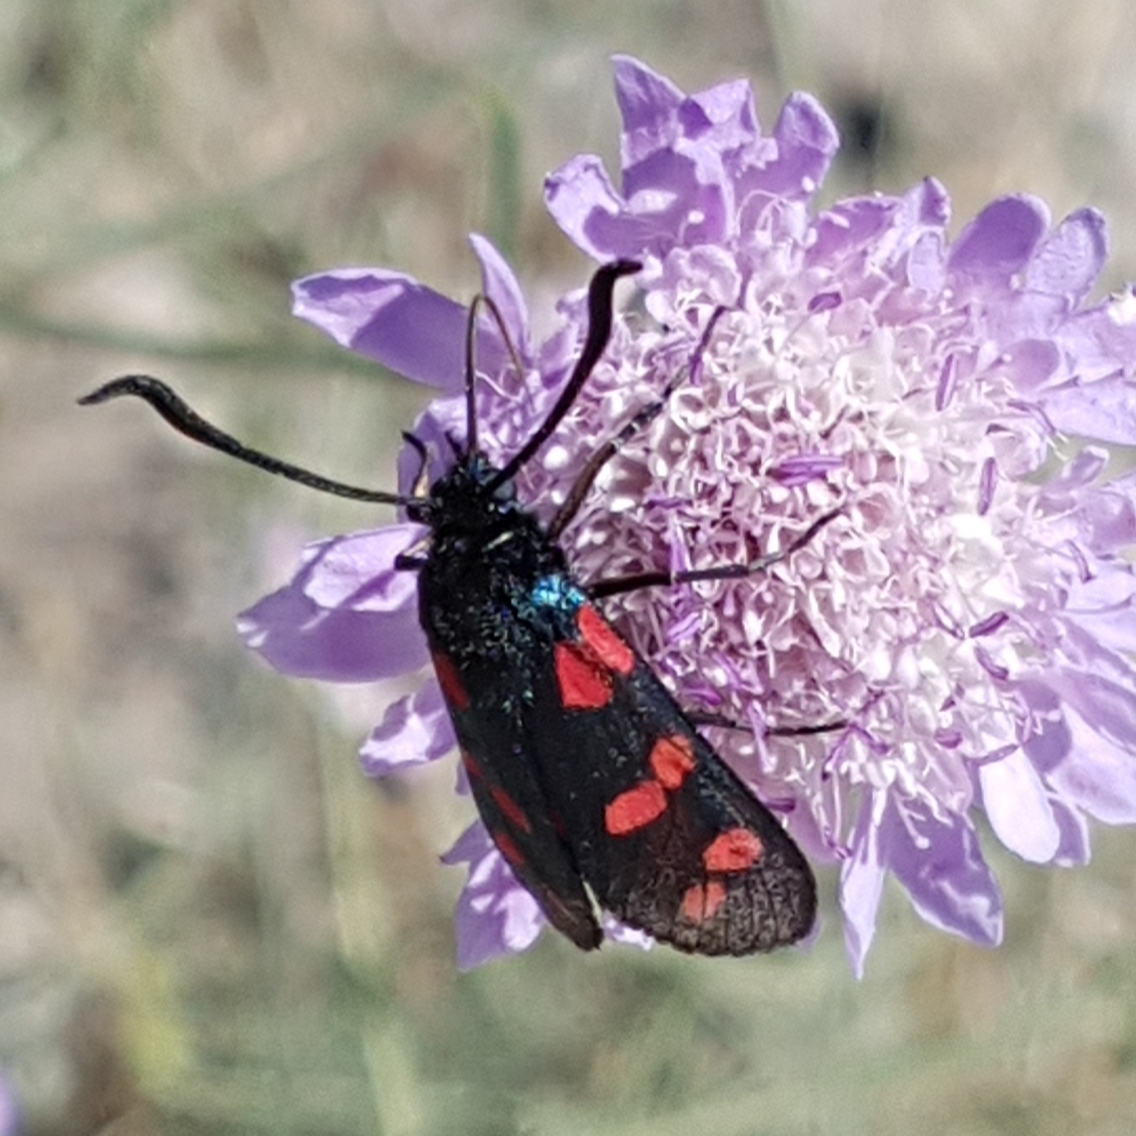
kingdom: Animalia
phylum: Arthropoda
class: Insecta
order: Lepidoptera
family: Zygaenidae
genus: Zygaena
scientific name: Zygaena filipendulae
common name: Six-spot burnet
